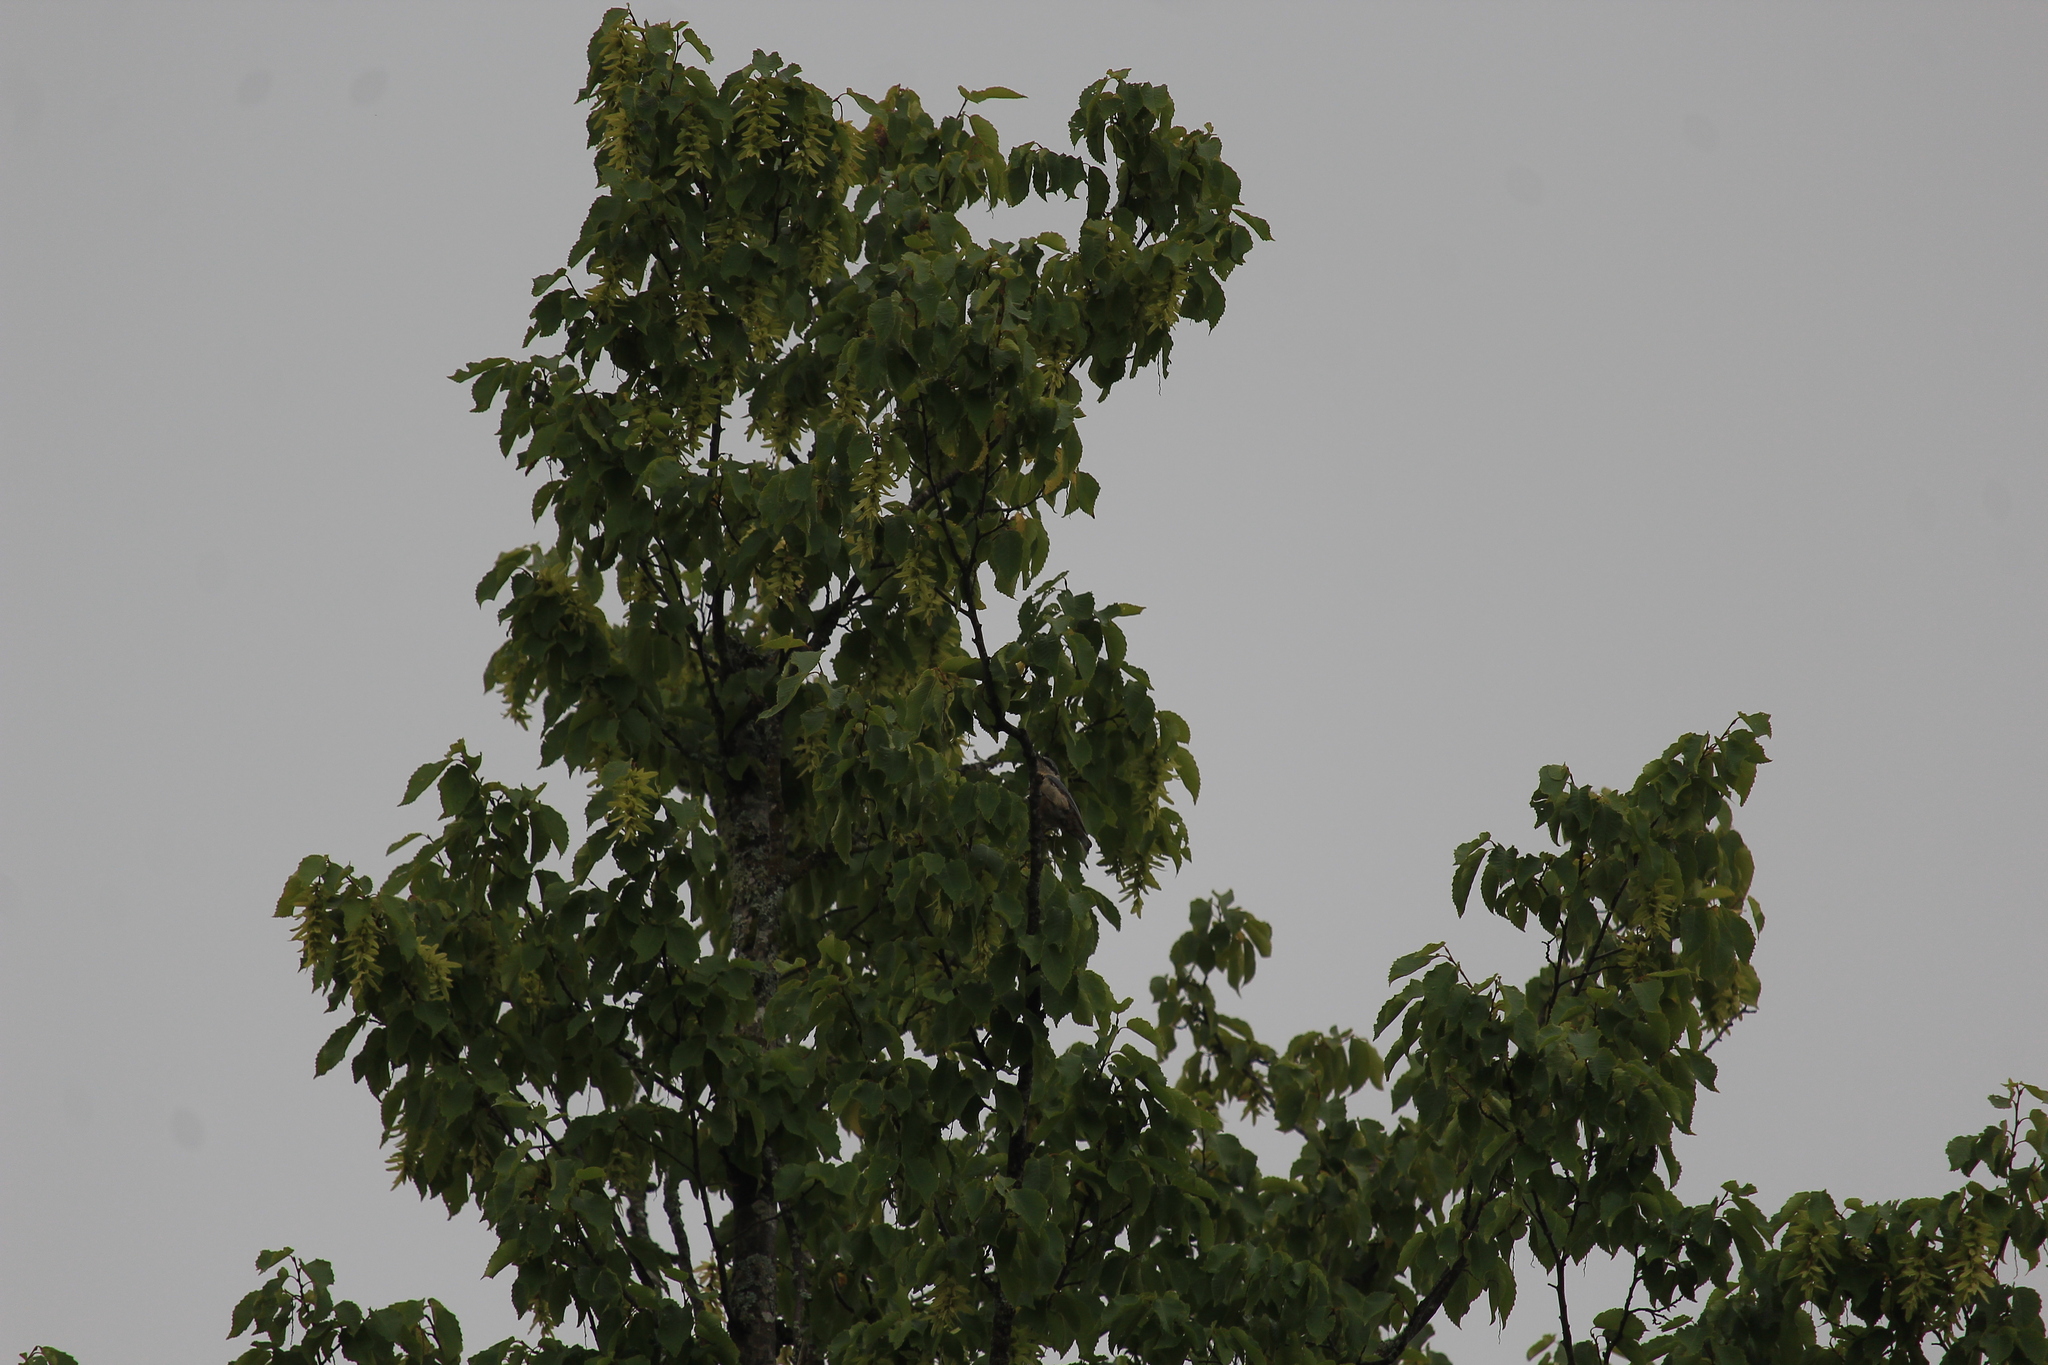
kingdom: Animalia
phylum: Chordata
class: Aves
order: Passeriformes
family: Sittidae
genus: Sitta
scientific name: Sitta europaea
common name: Eurasian nuthatch
